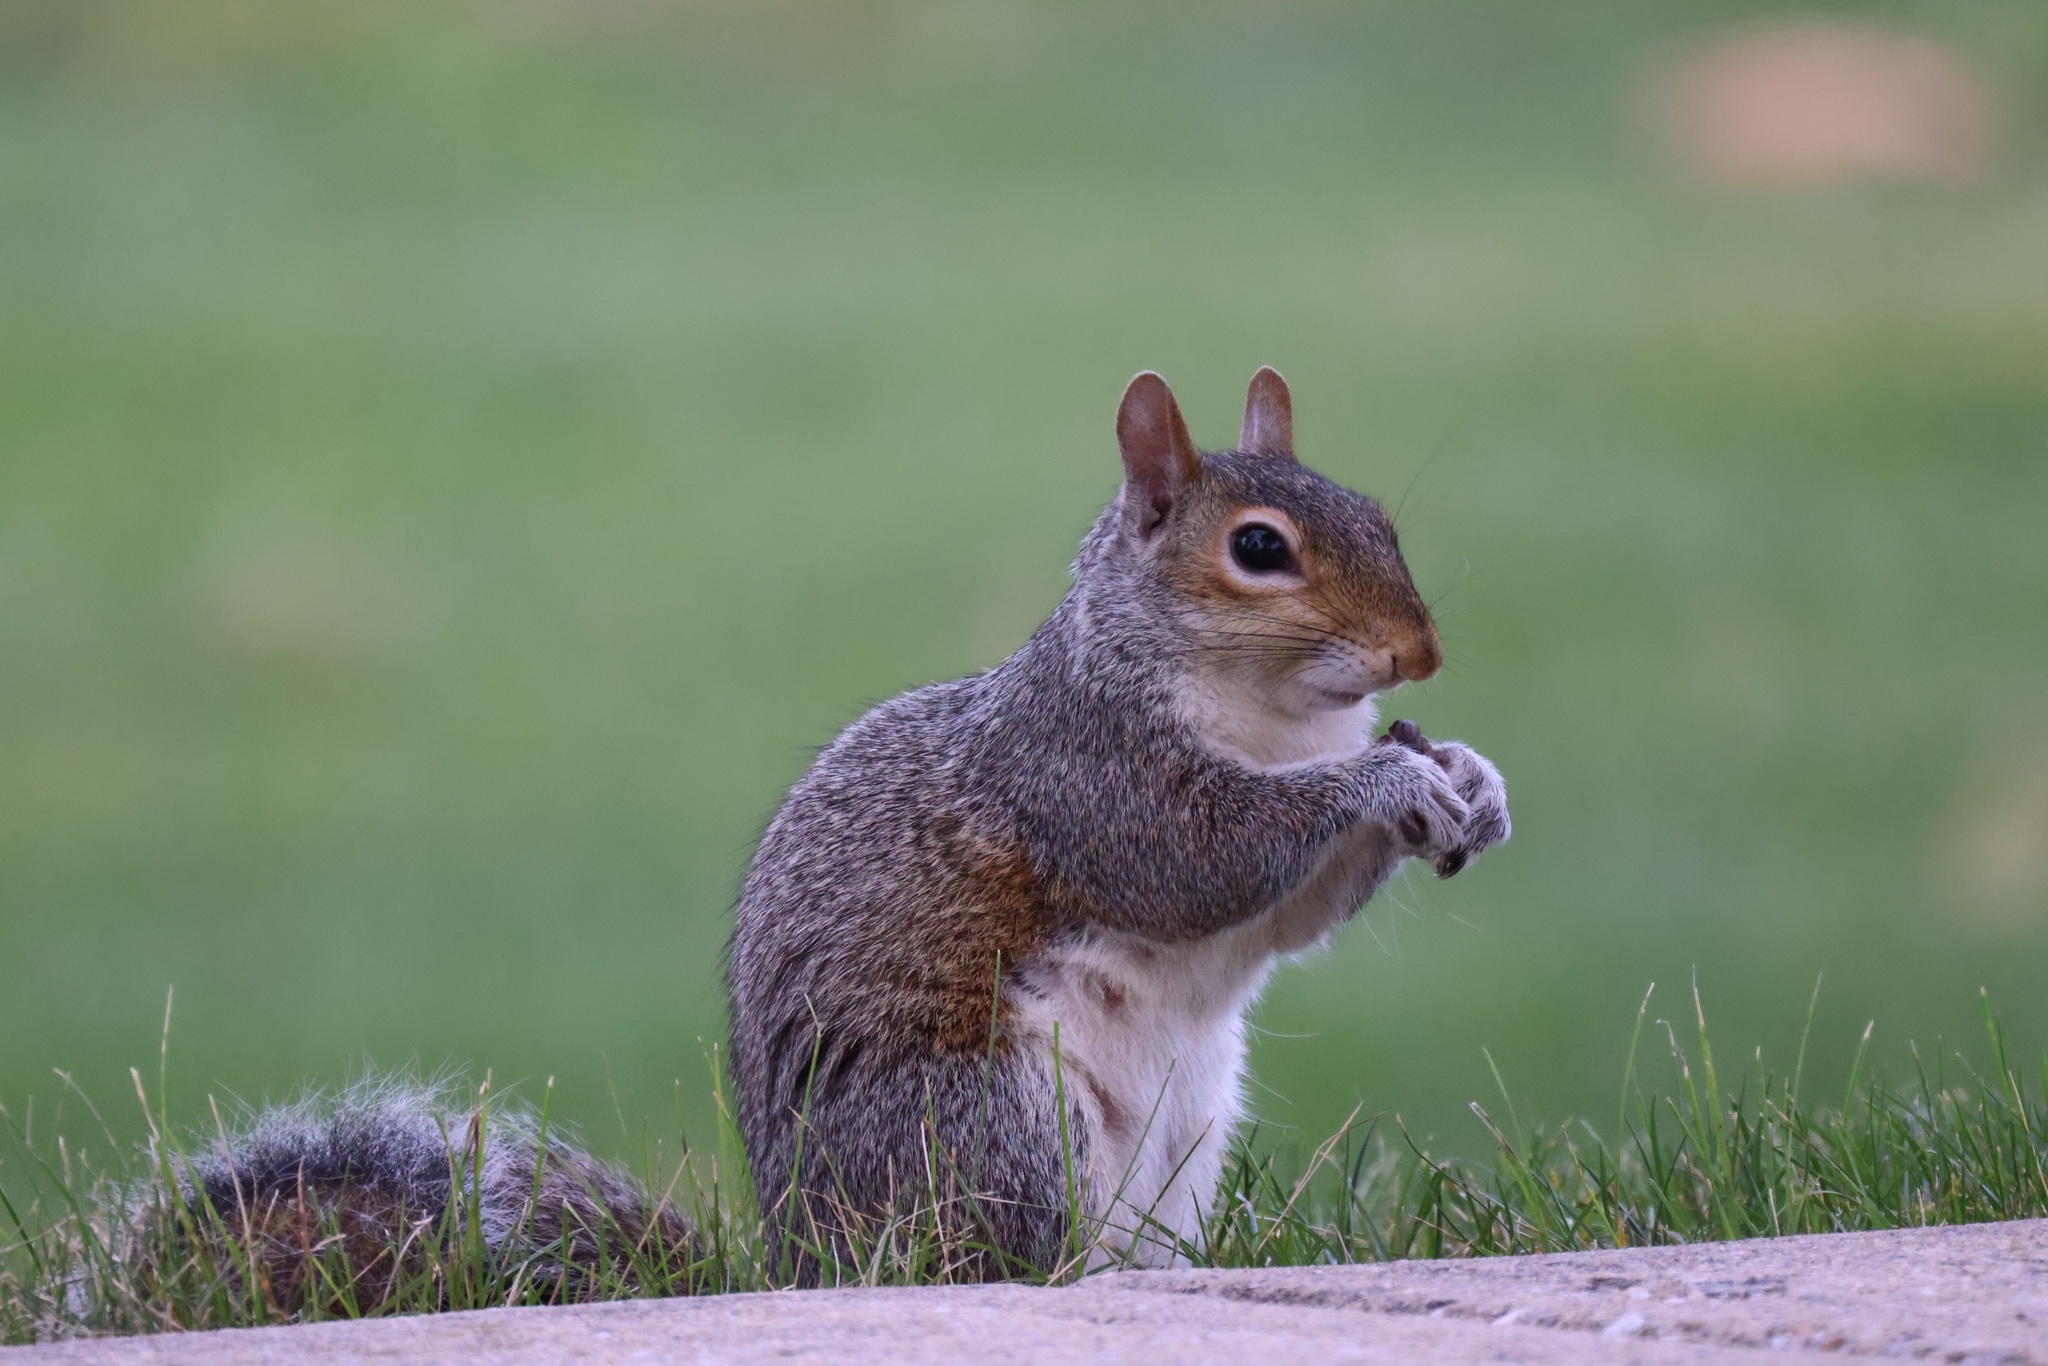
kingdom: Animalia
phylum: Chordata
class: Mammalia
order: Rodentia
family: Sciuridae
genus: Sciurus
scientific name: Sciurus carolinensis
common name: Eastern gray squirrel
